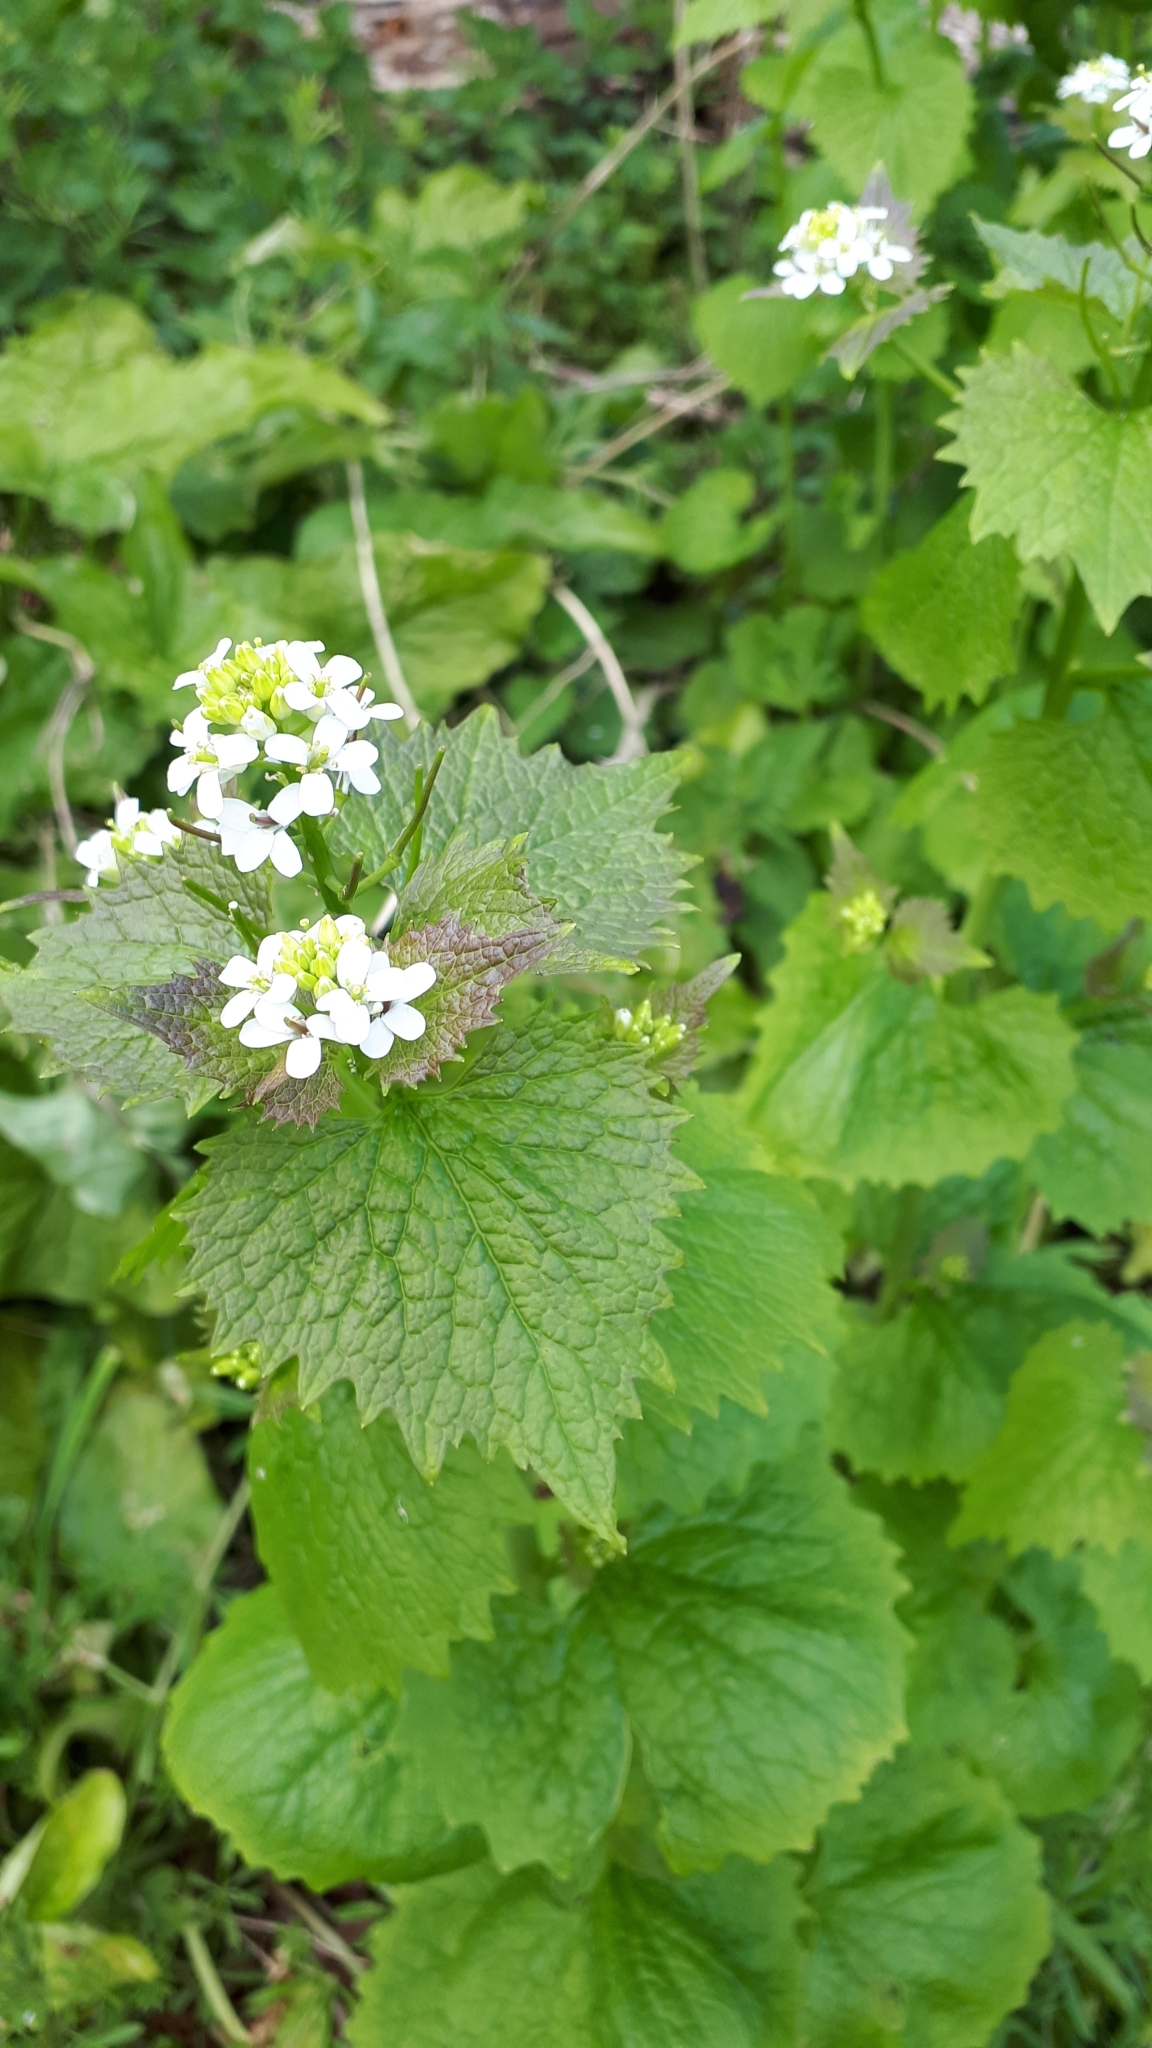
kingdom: Plantae
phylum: Tracheophyta
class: Magnoliopsida
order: Brassicales
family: Brassicaceae
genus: Alliaria
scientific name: Alliaria petiolata
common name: Garlic mustard
